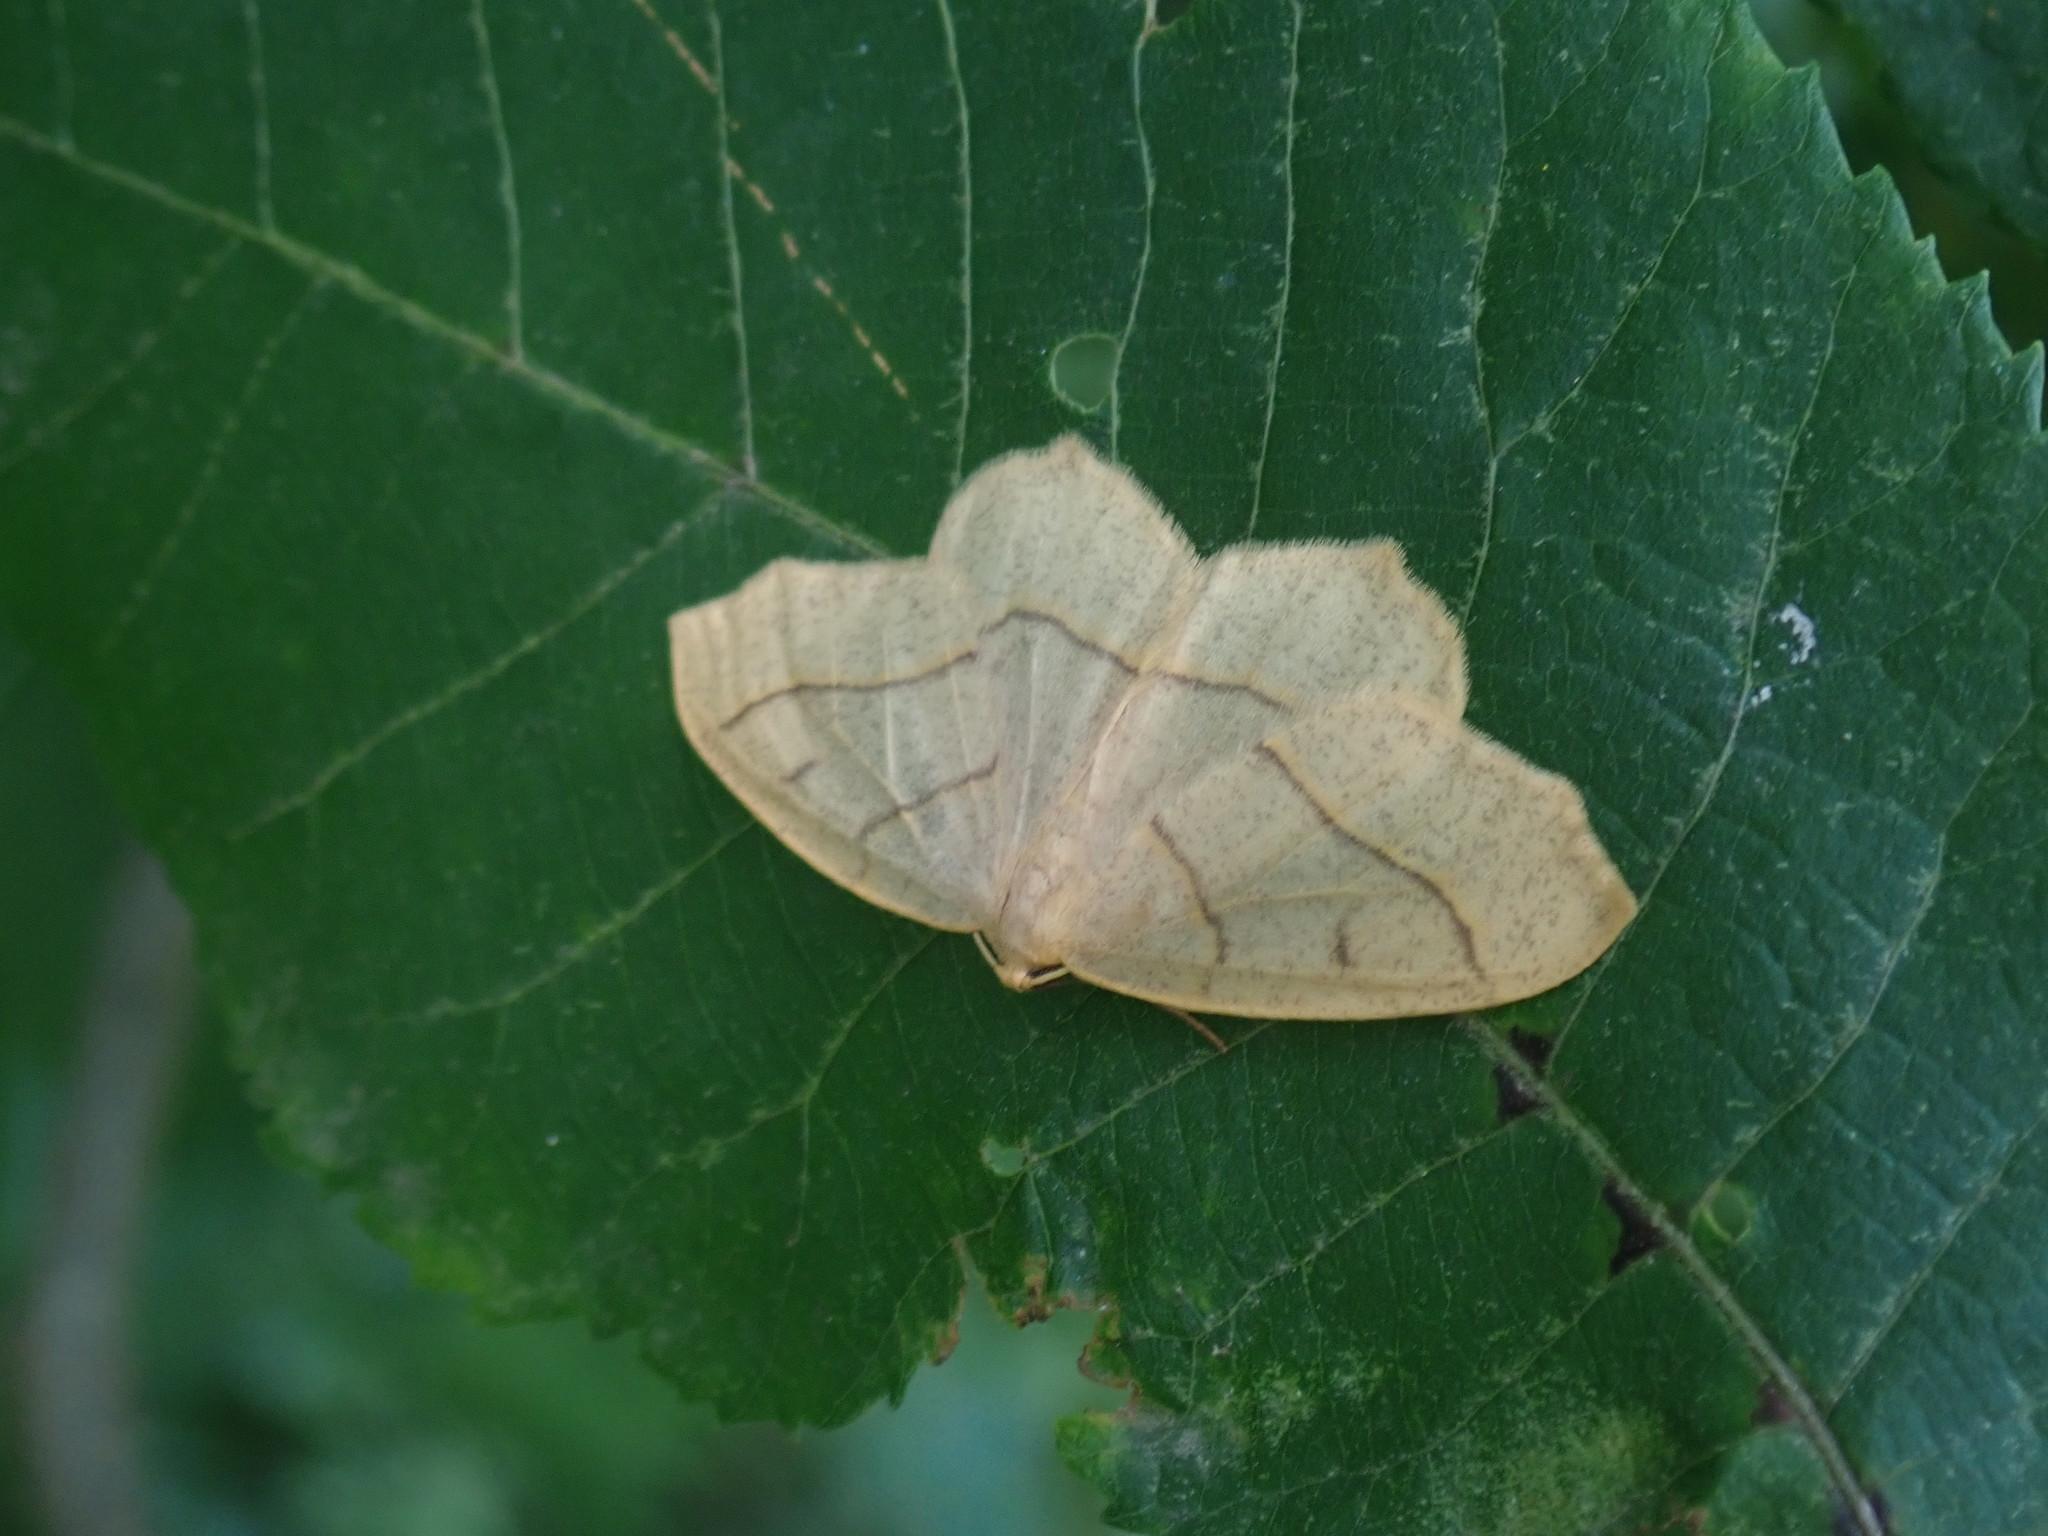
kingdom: Animalia
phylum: Arthropoda
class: Insecta
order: Lepidoptera
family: Geometridae
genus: Lambdina
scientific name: Lambdina fiscellaria
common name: Hemlock looper
